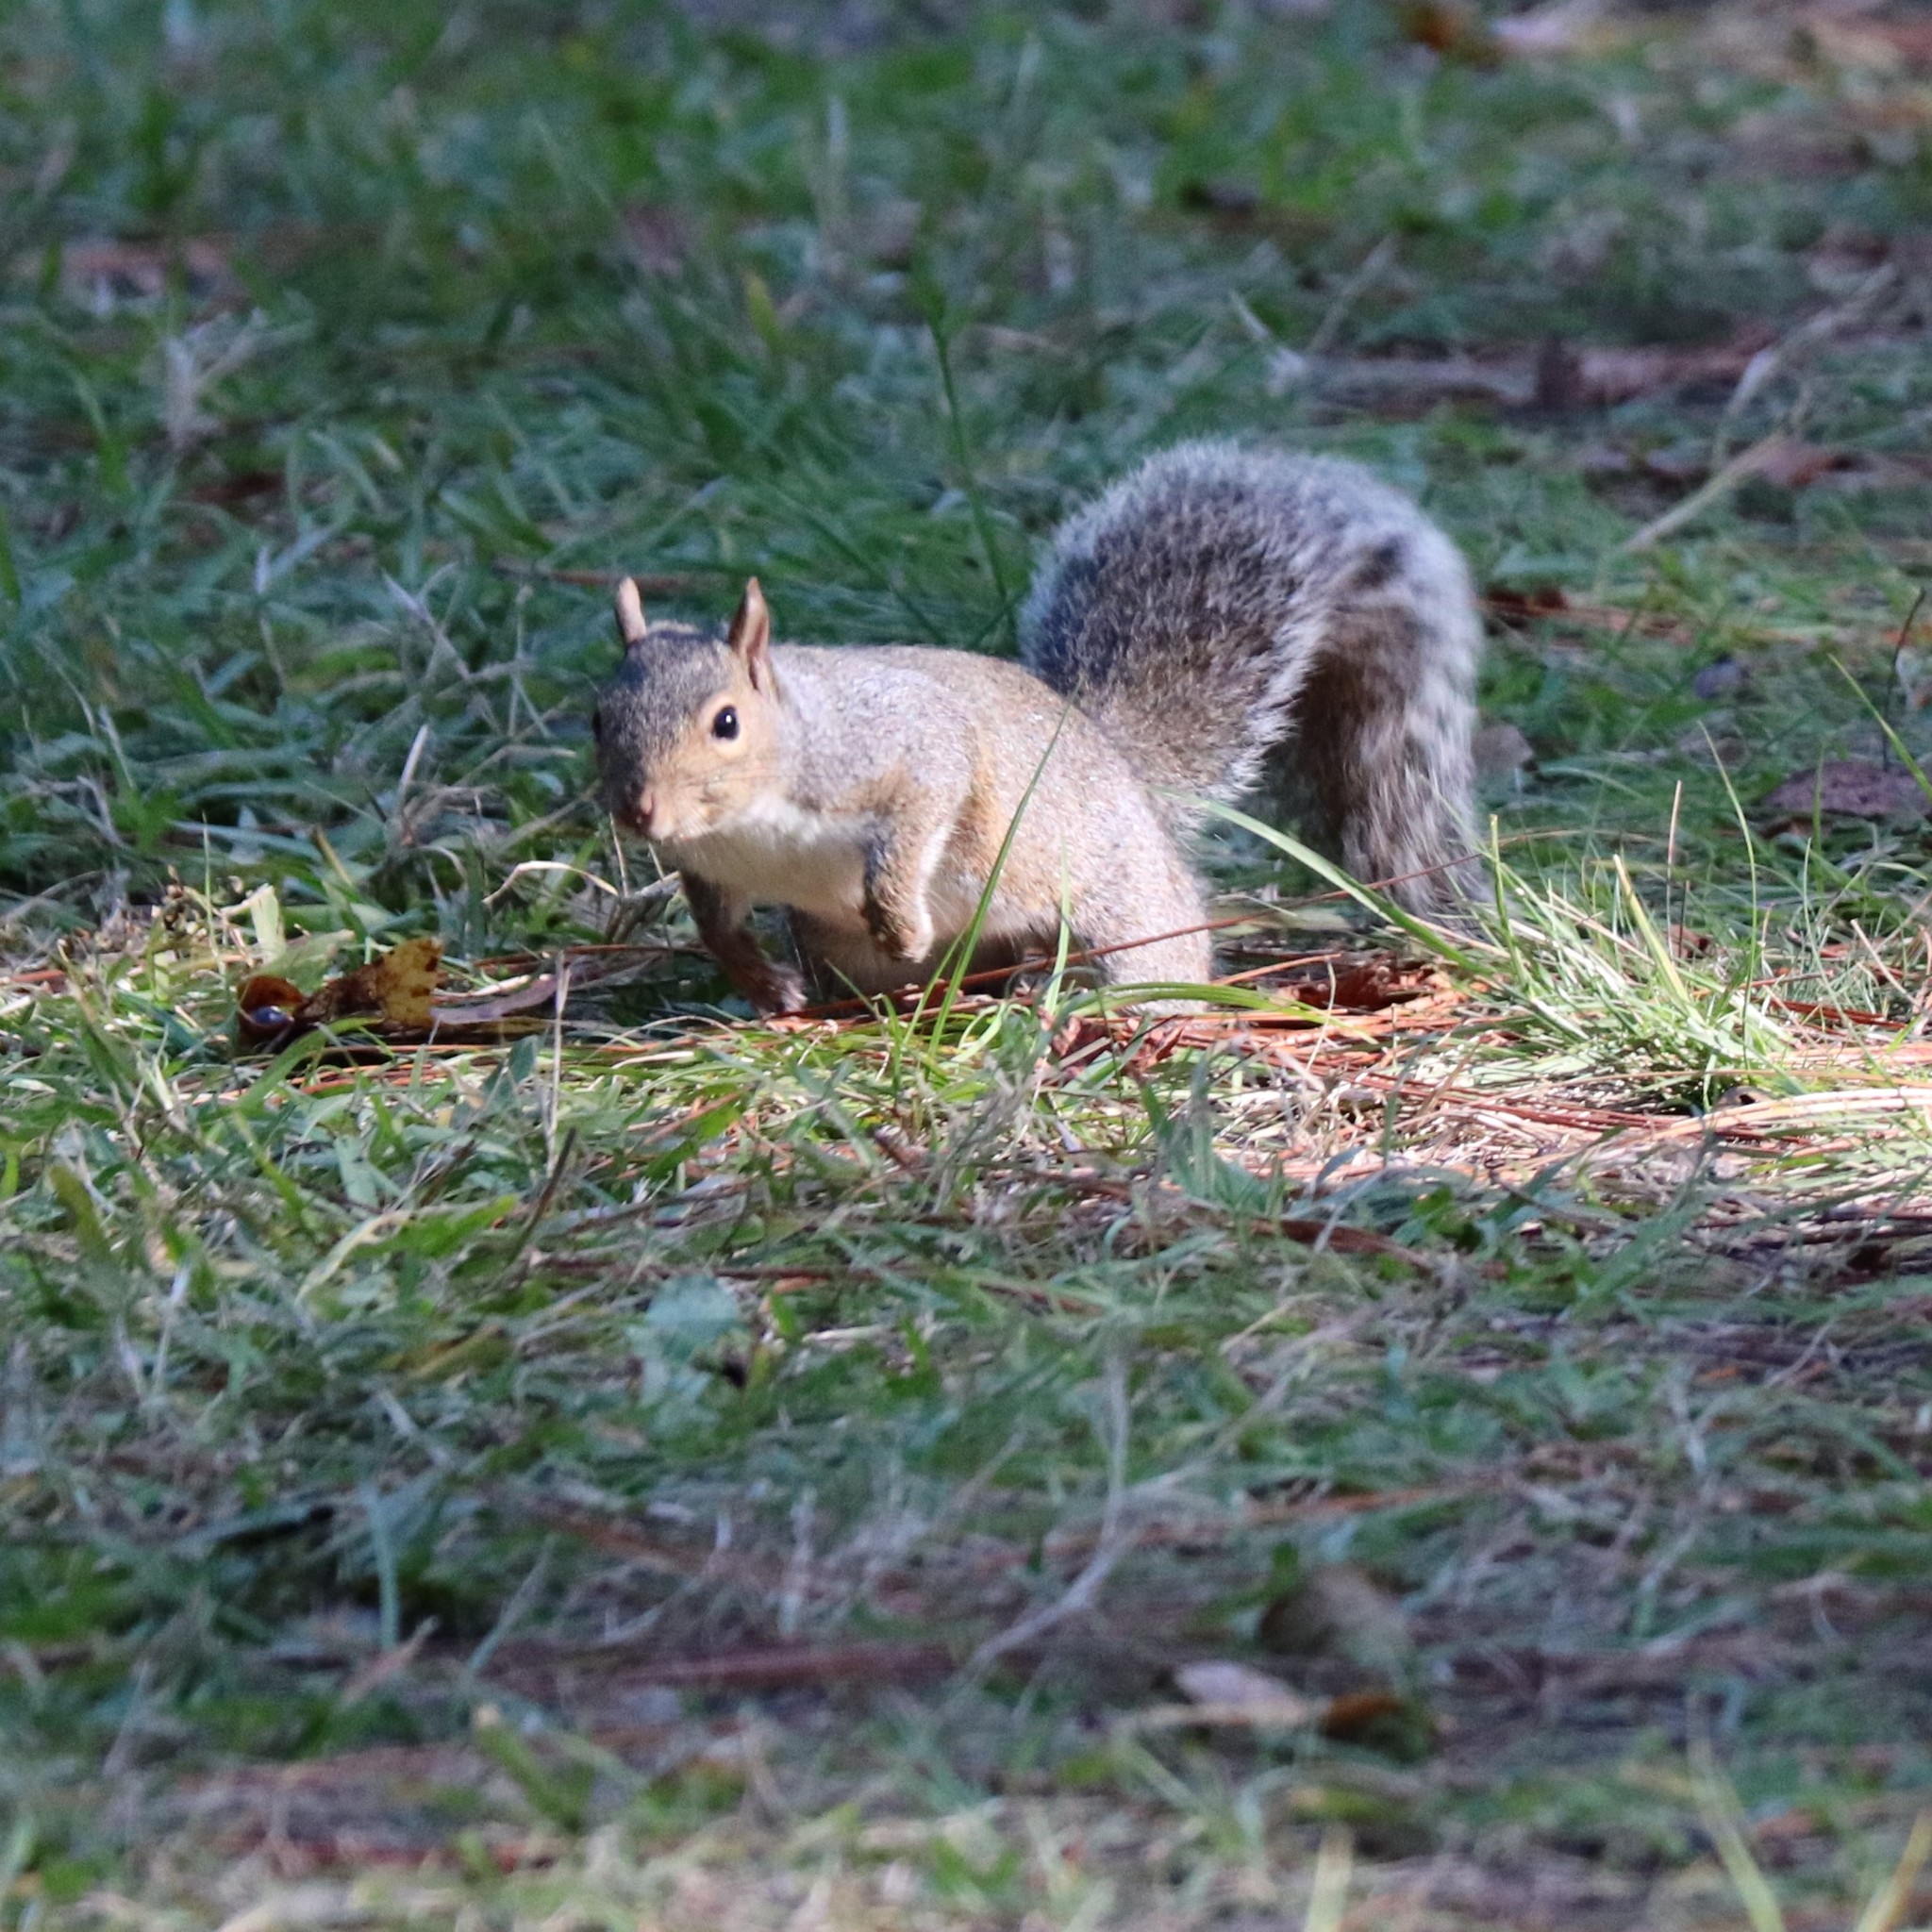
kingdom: Animalia
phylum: Chordata
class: Mammalia
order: Rodentia
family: Sciuridae
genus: Sciurus
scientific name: Sciurus carolinensis
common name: Eastern gray squirrel
